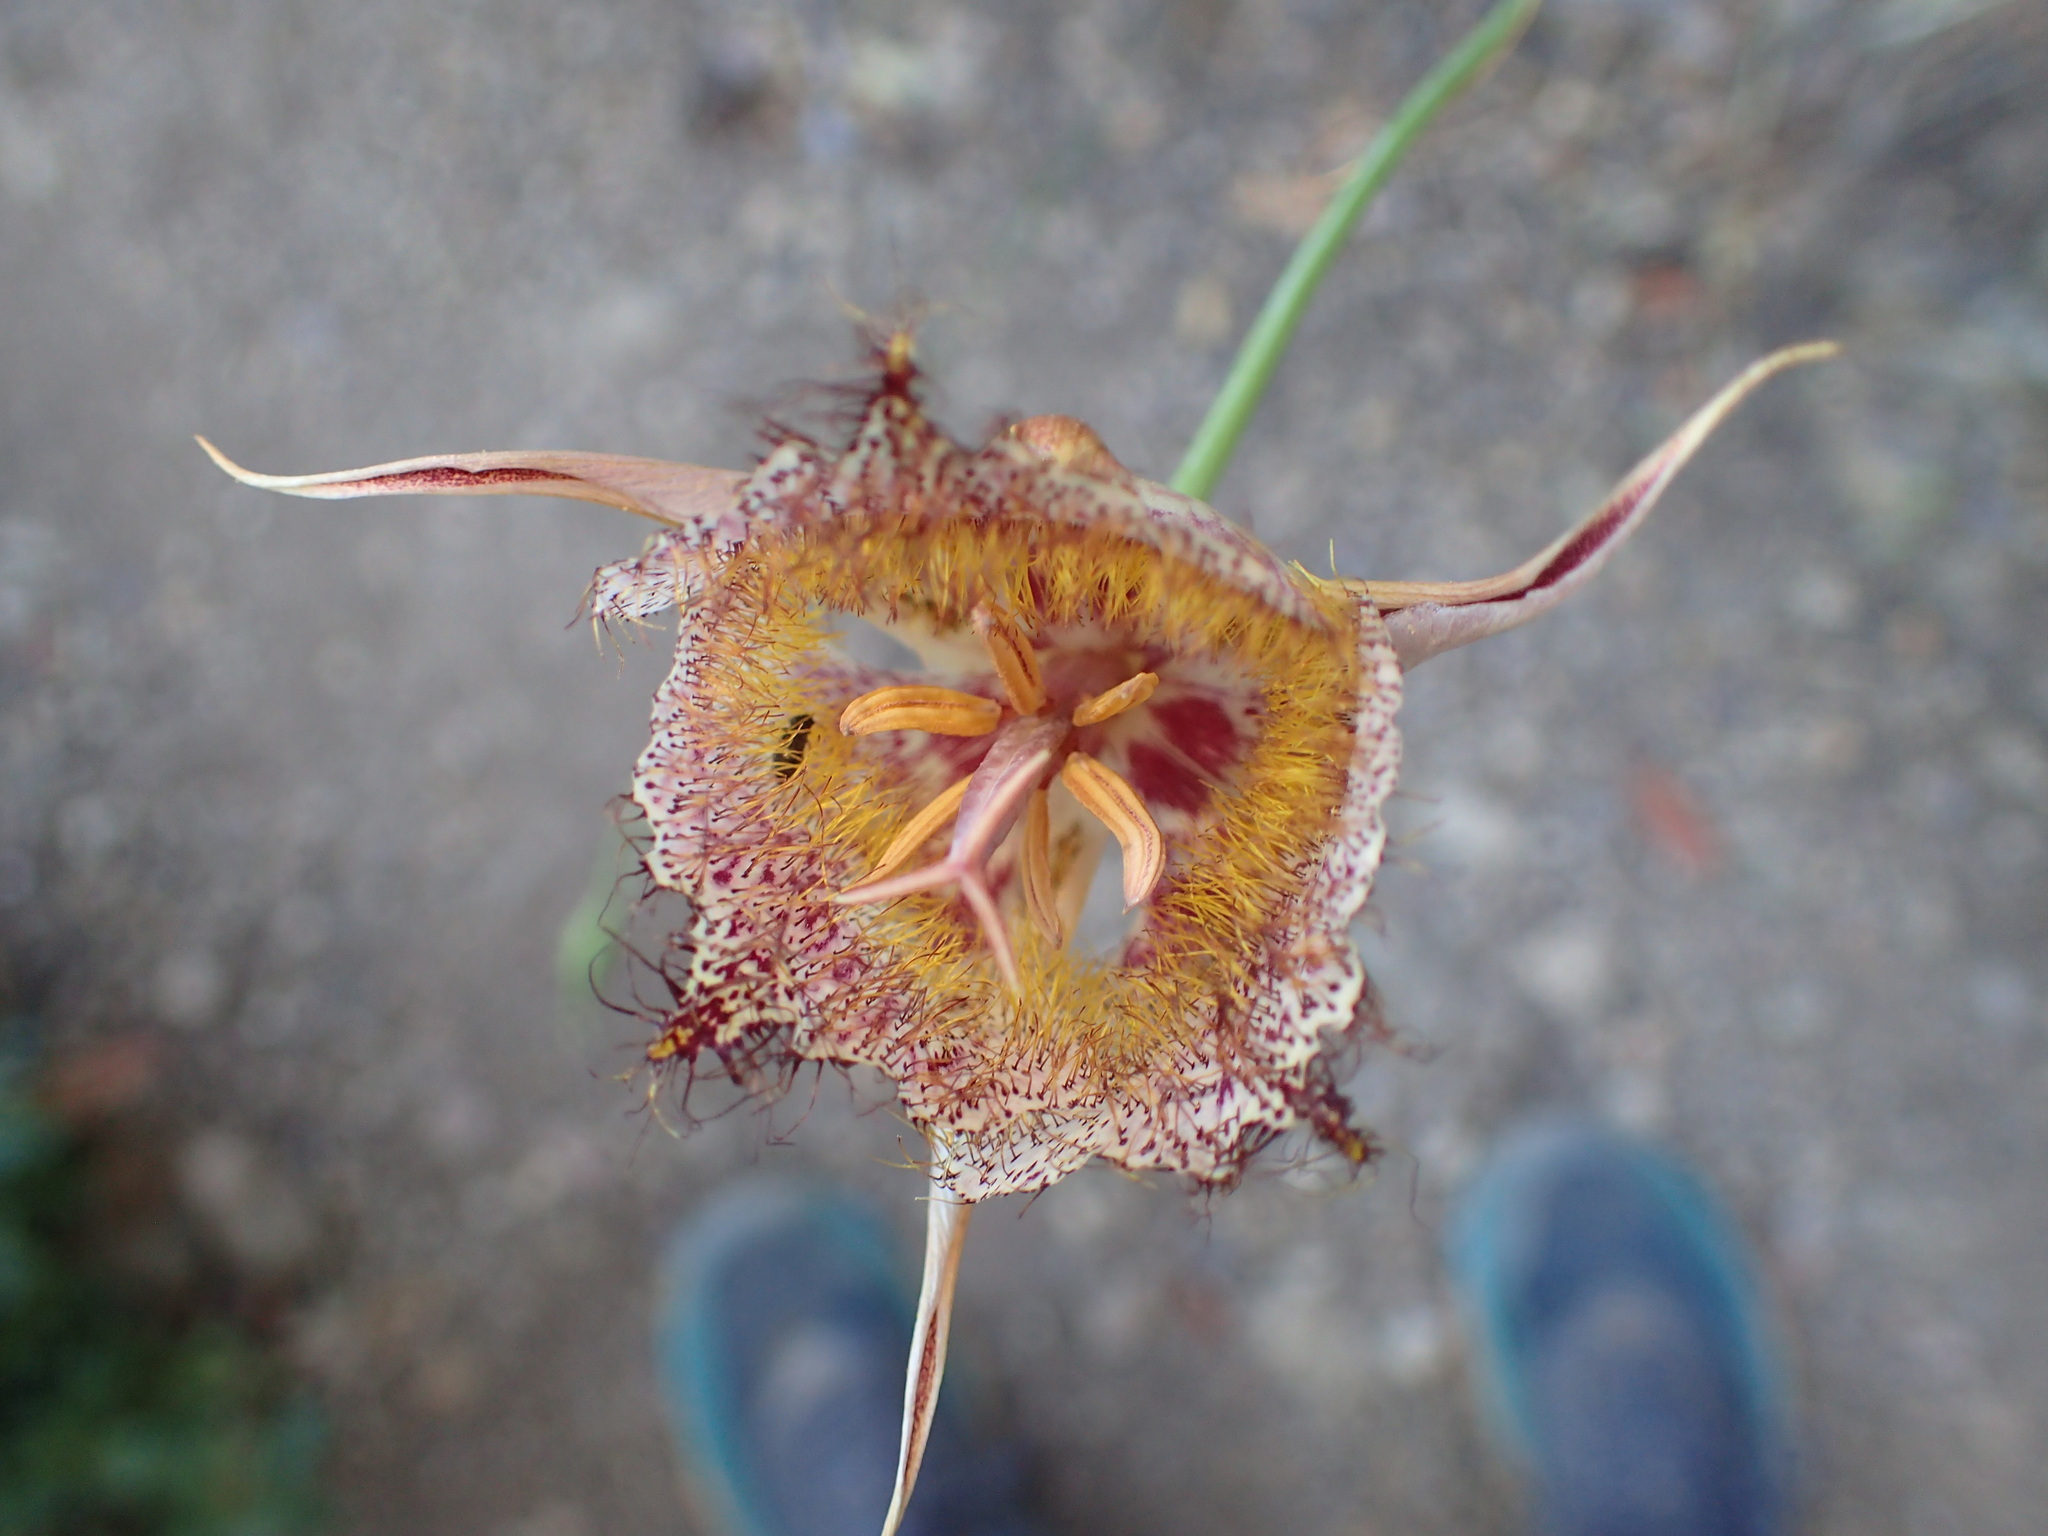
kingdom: Plantae
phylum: Tracheophyta
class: Liliopsida
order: Liliales
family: Liliaceae
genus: Calochortus
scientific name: Calochortus fimbriatus
